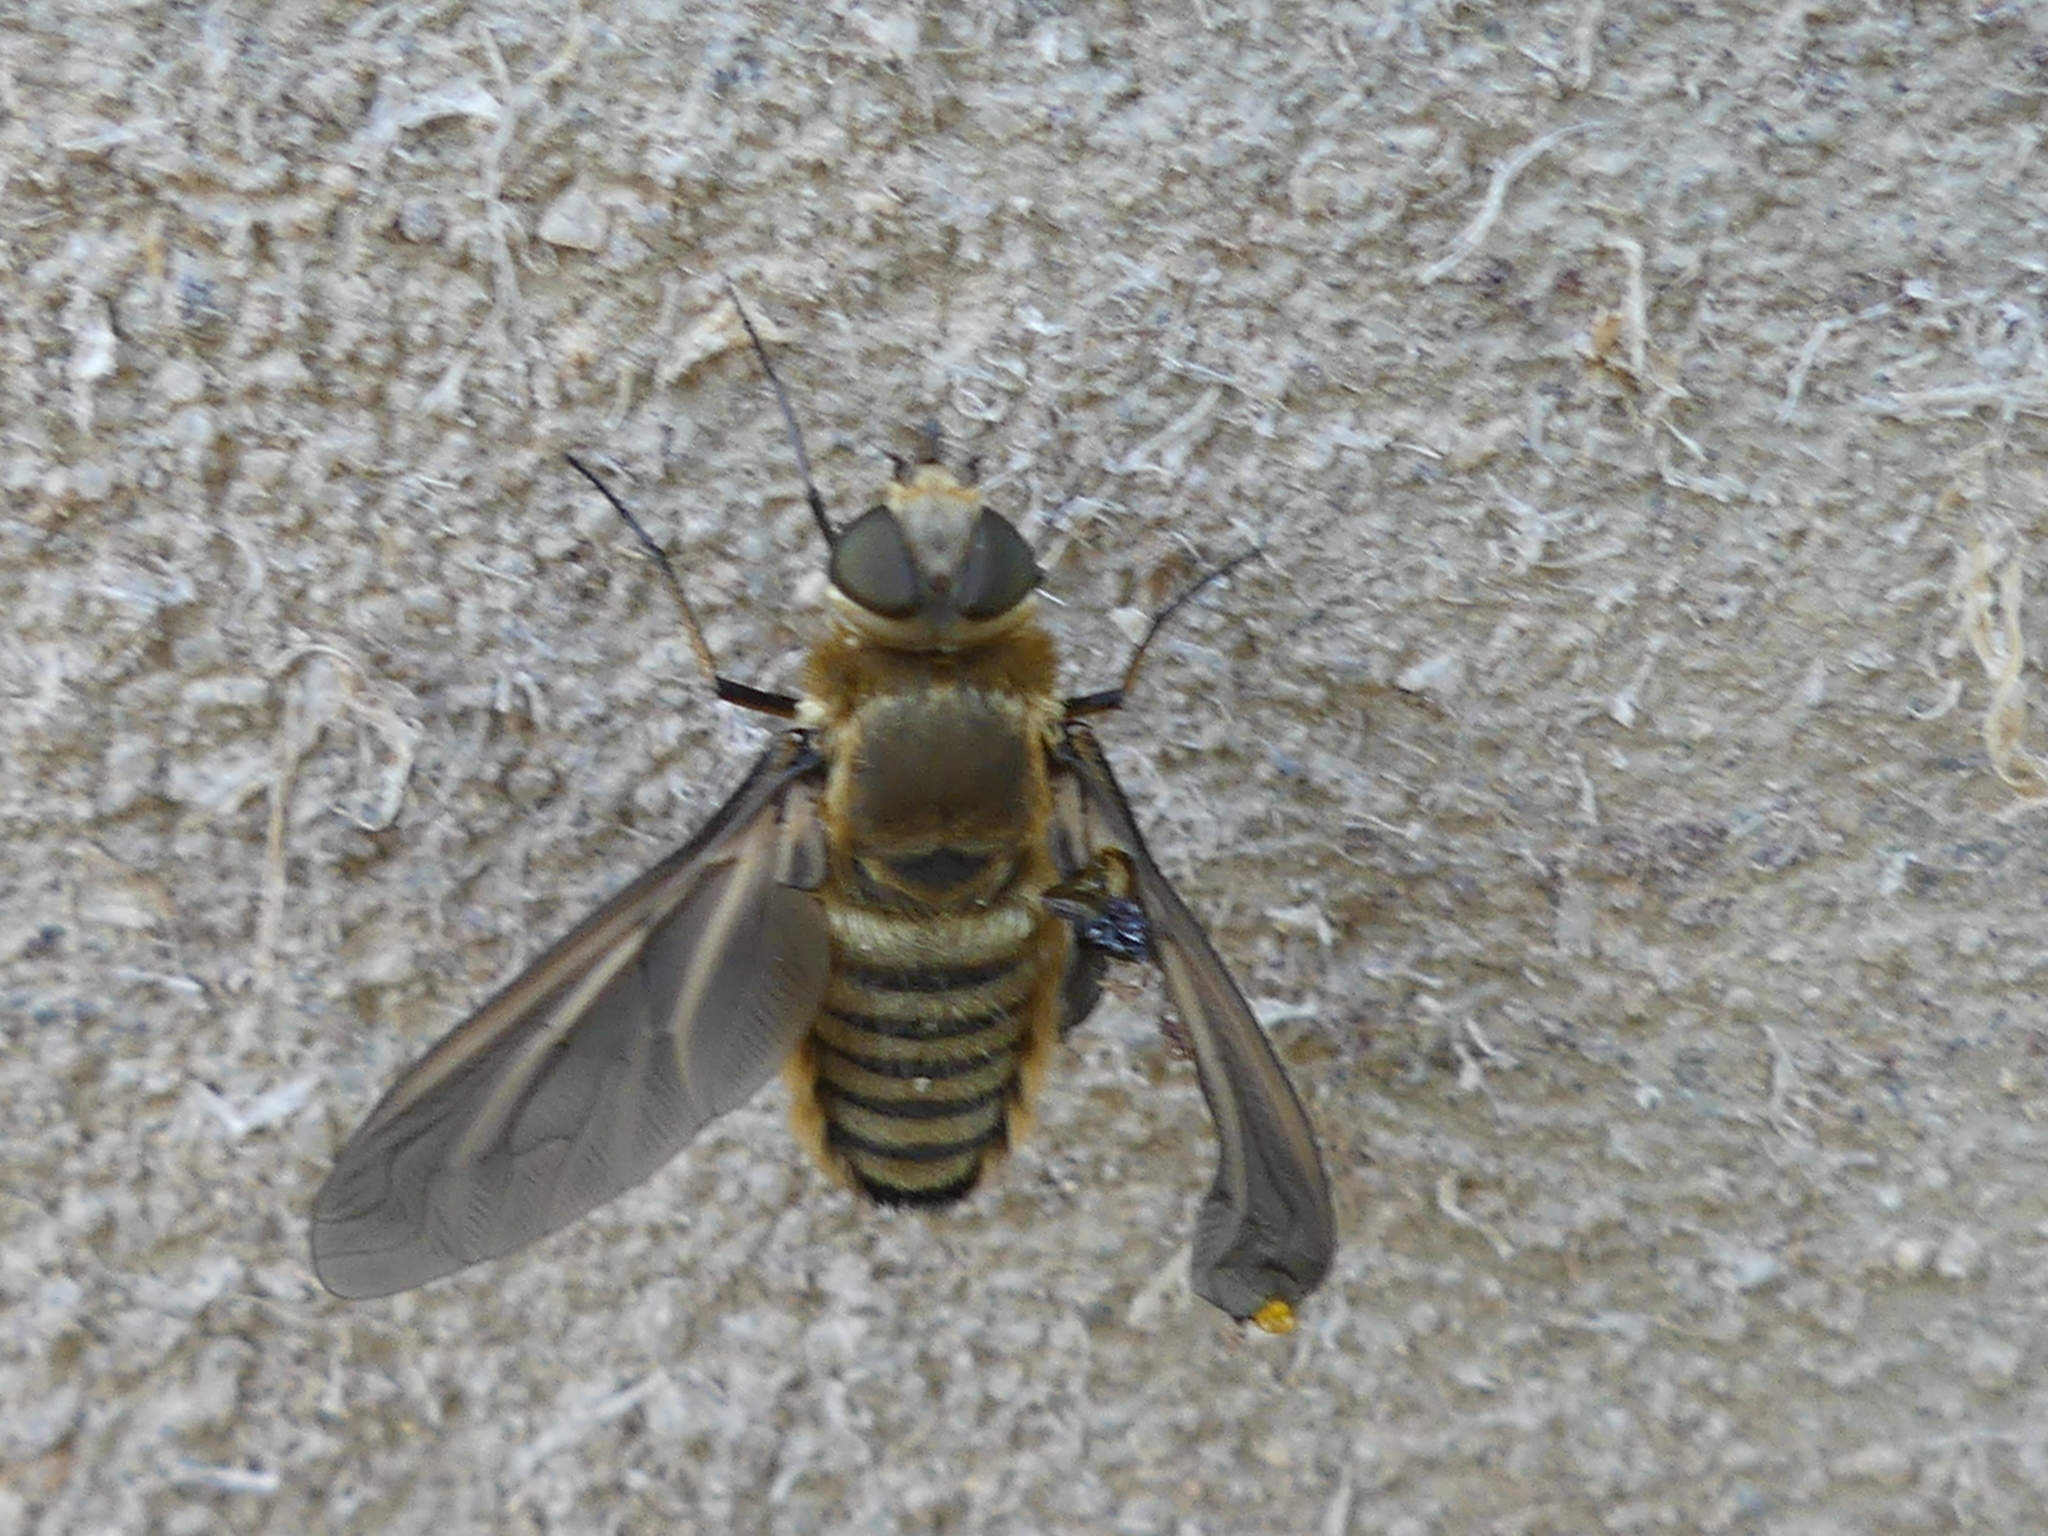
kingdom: Animalia
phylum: Arthropoda
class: Insecta
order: Diptera
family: Bombyliidae
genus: Poecilanthrax
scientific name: Poecilanthrax lucifer
